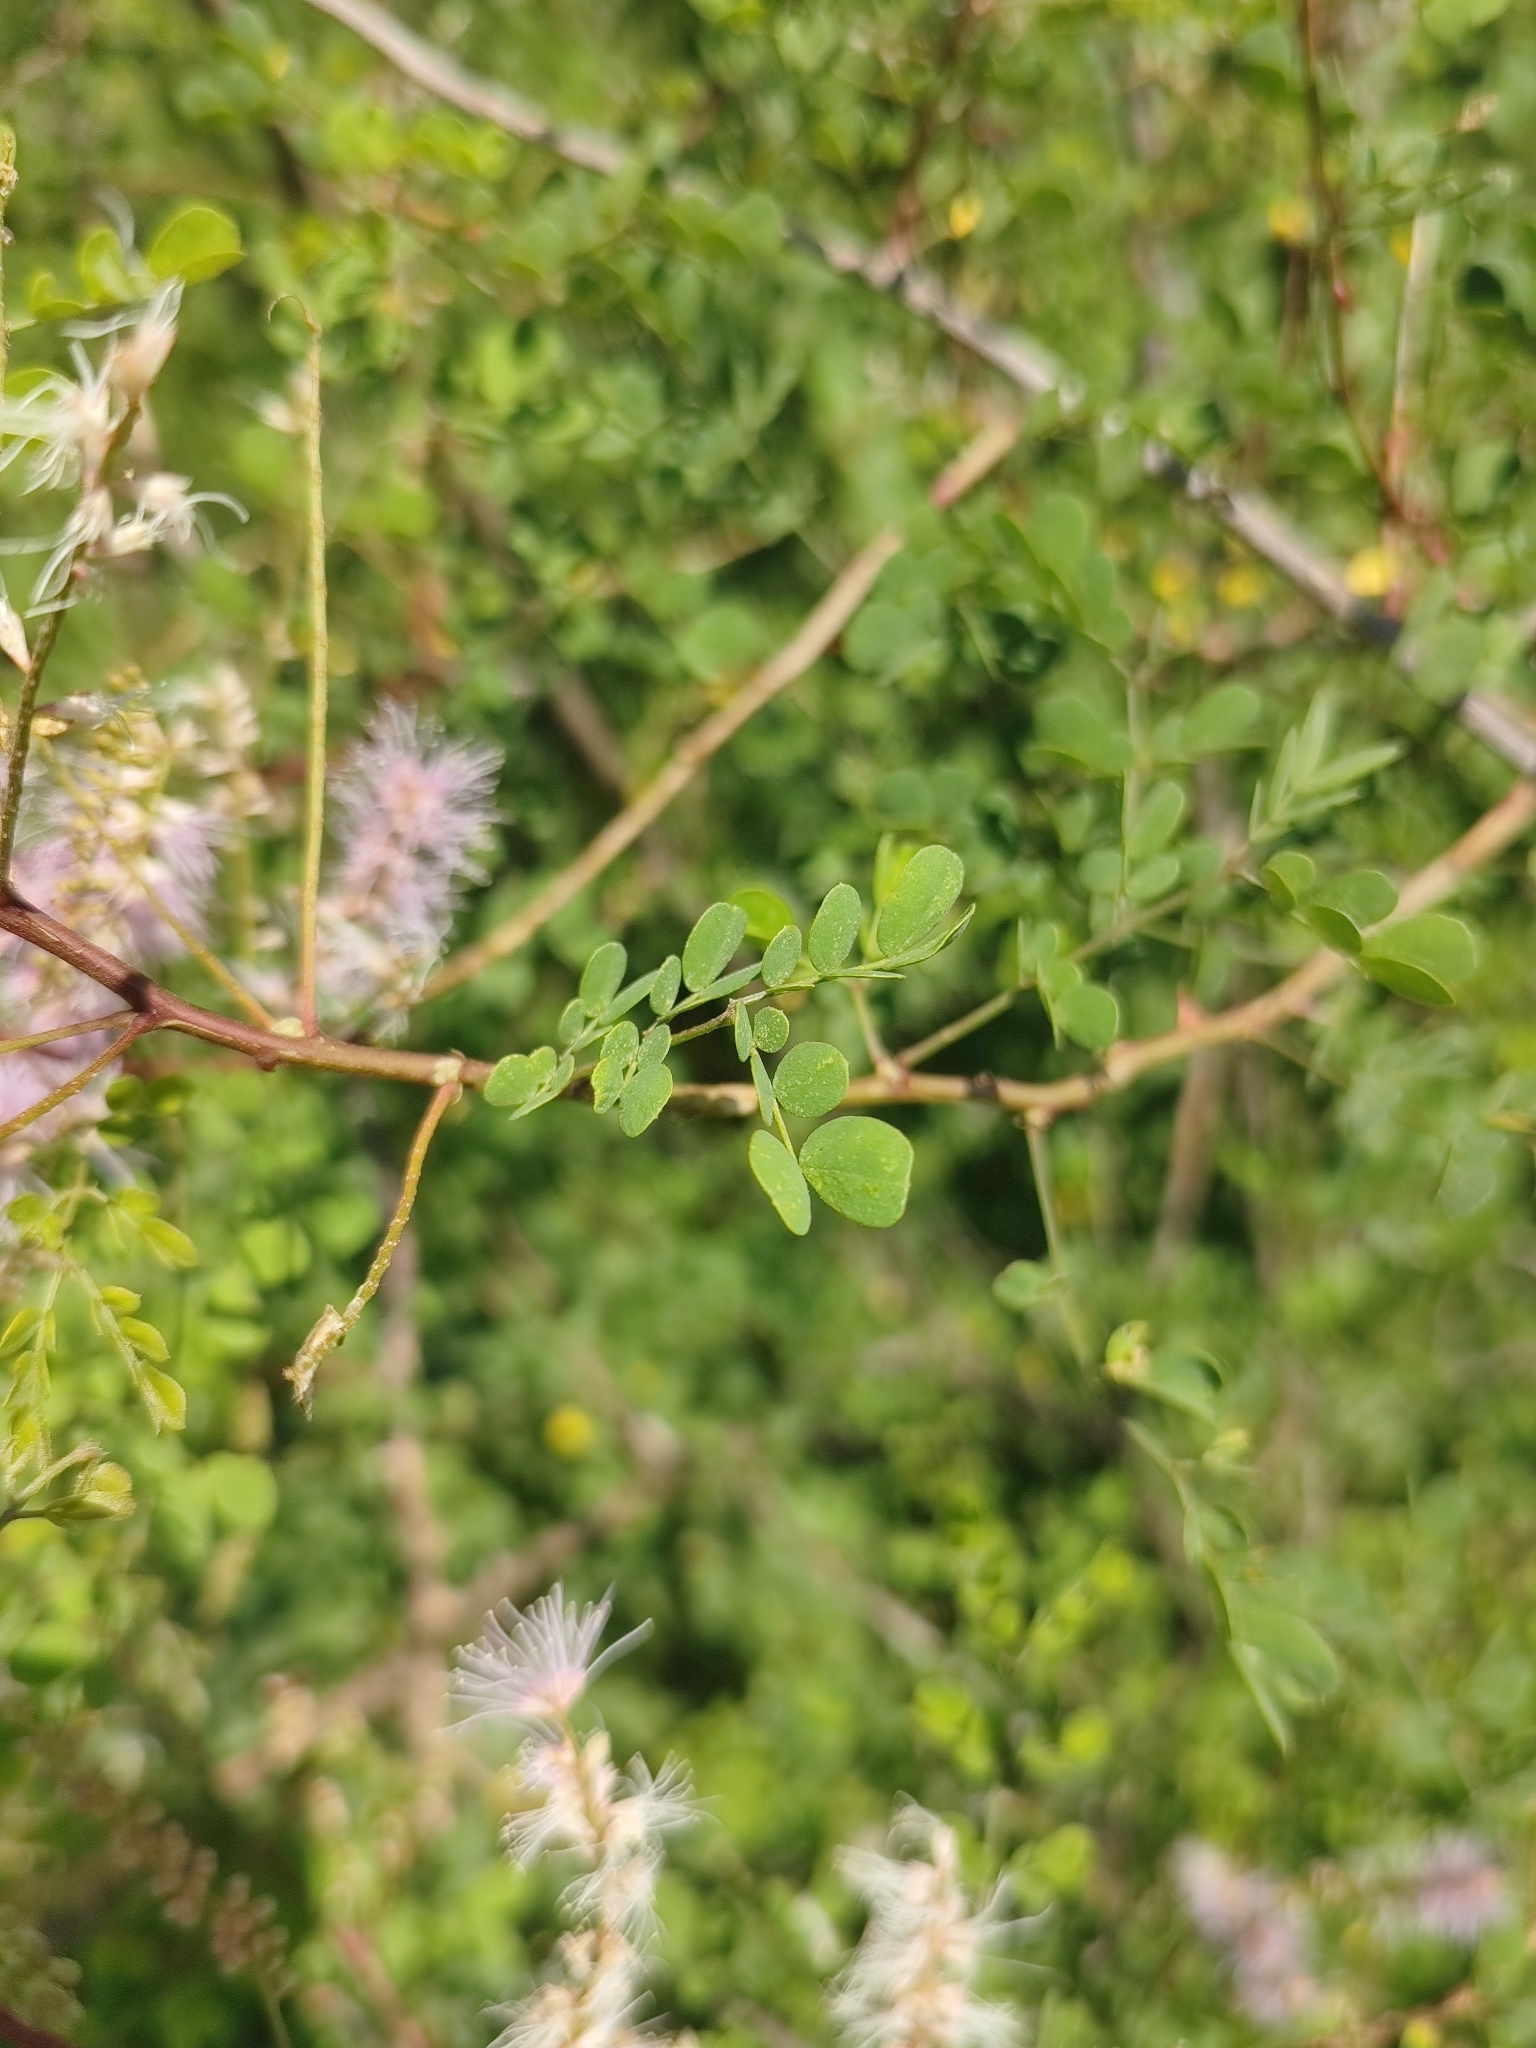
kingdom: Plantae
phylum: Tracheophyta
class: Magnoliopsida
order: Fabales
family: Fabaceae
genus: Mimosa
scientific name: Mimosa distachya
